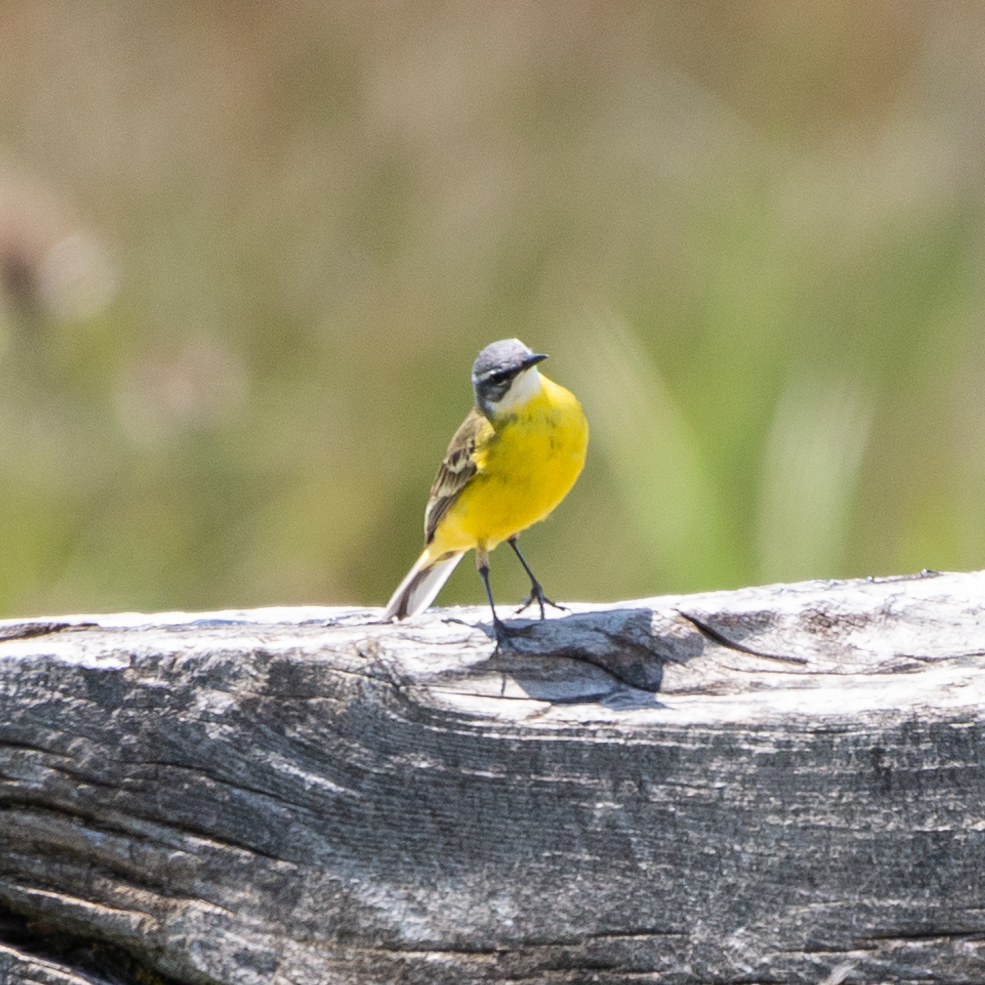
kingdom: Animalia
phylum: Chordata
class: Aves
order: Passeriformes
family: Motacillidae
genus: Motacilla
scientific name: Motacilla flava
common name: Western yellow wagtail
